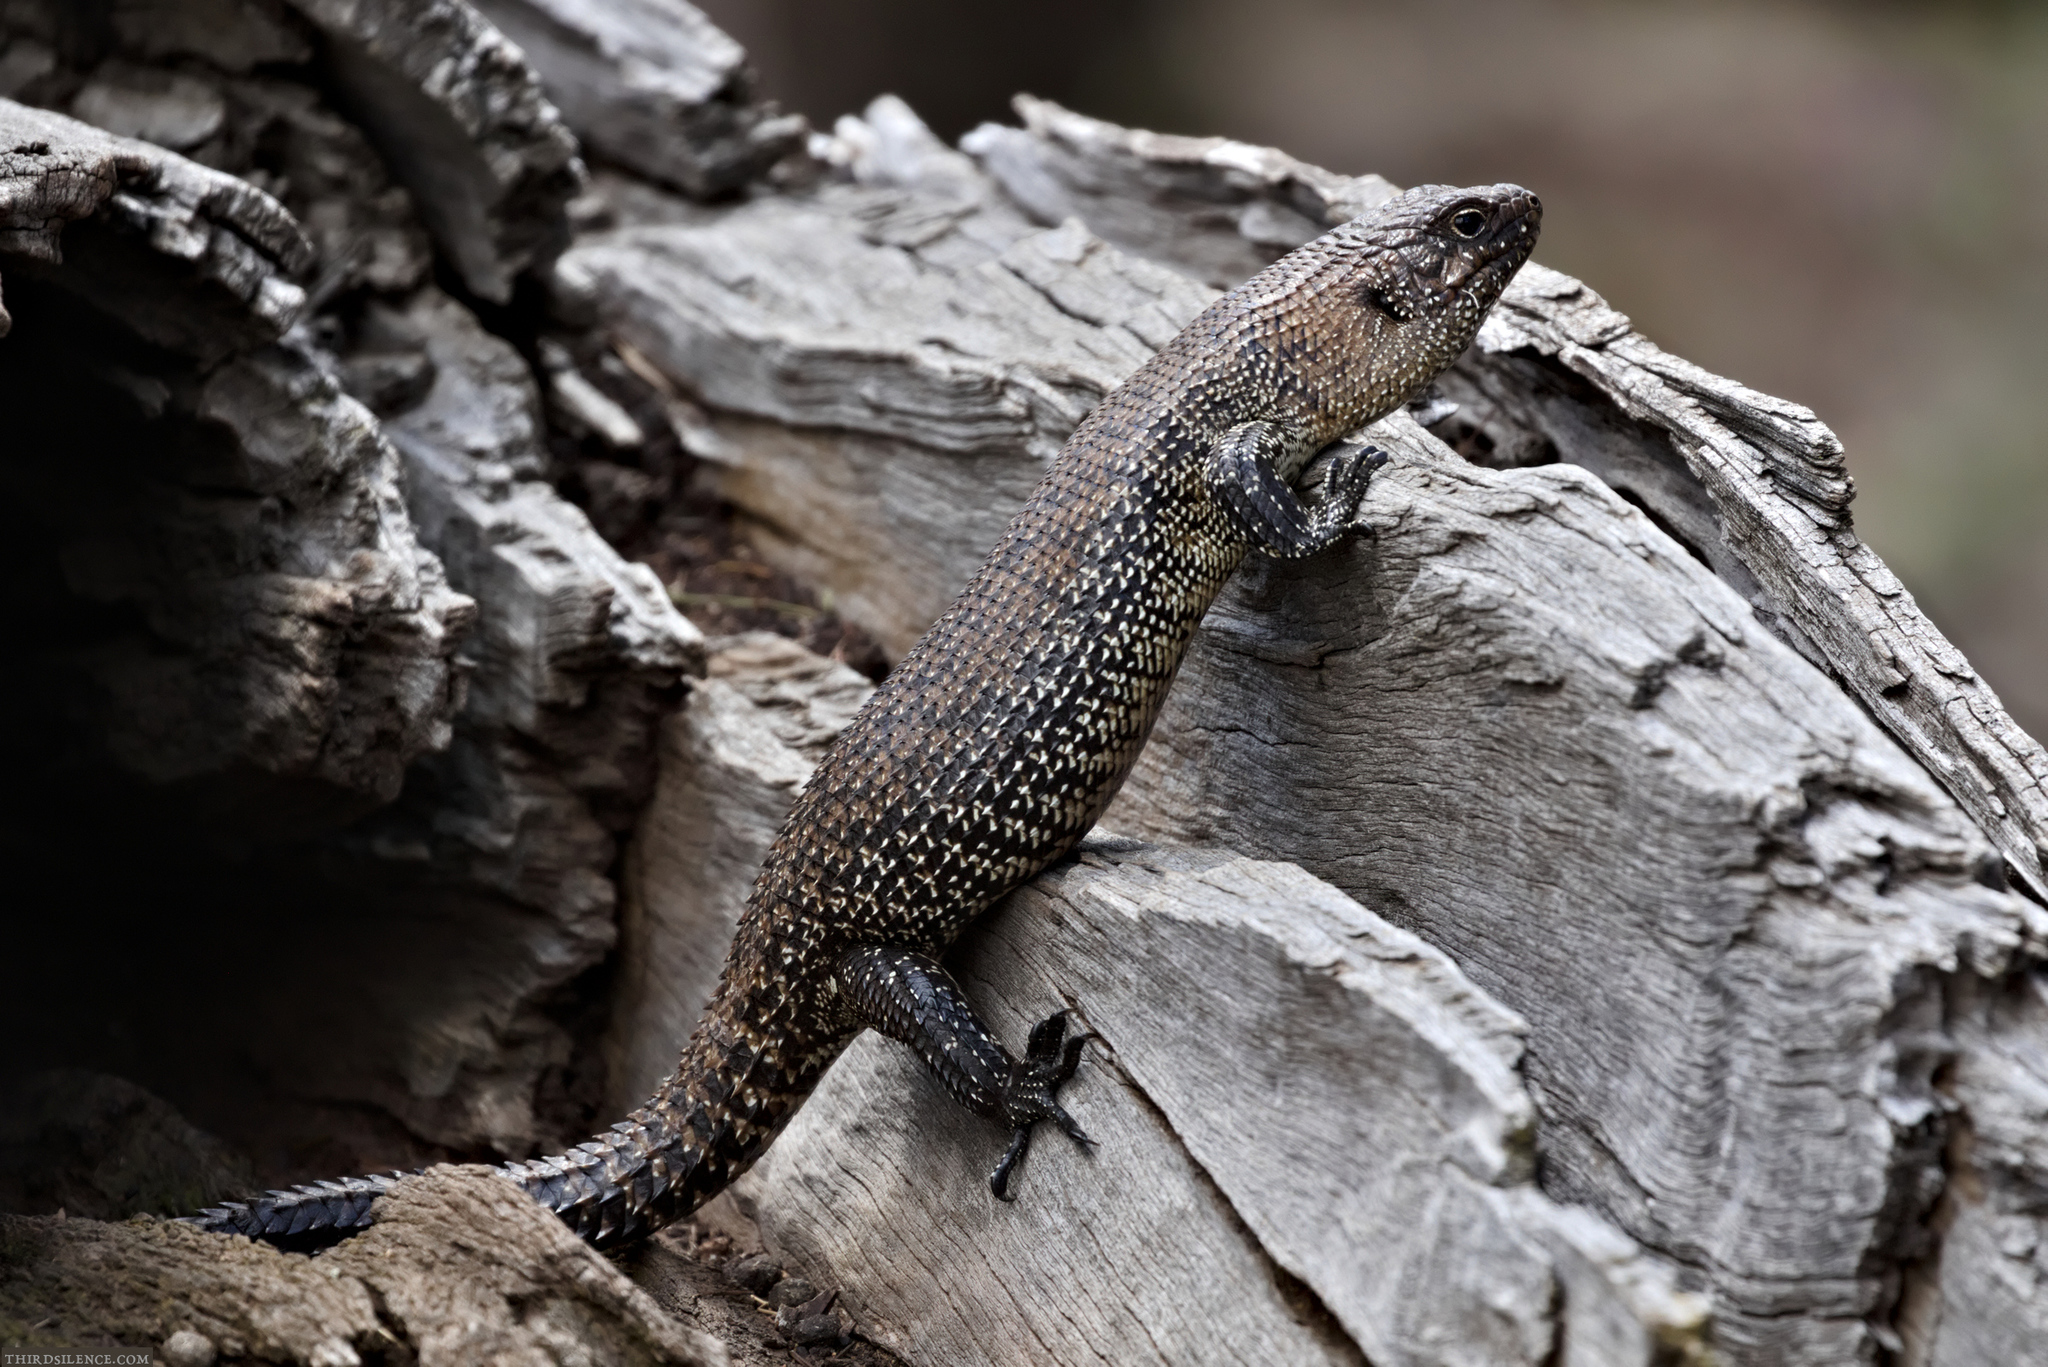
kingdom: Animalia
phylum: Chordata
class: Squamata
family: Scincidae
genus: Egernia
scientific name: Egernia cunninghami
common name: Cunningham's skink
